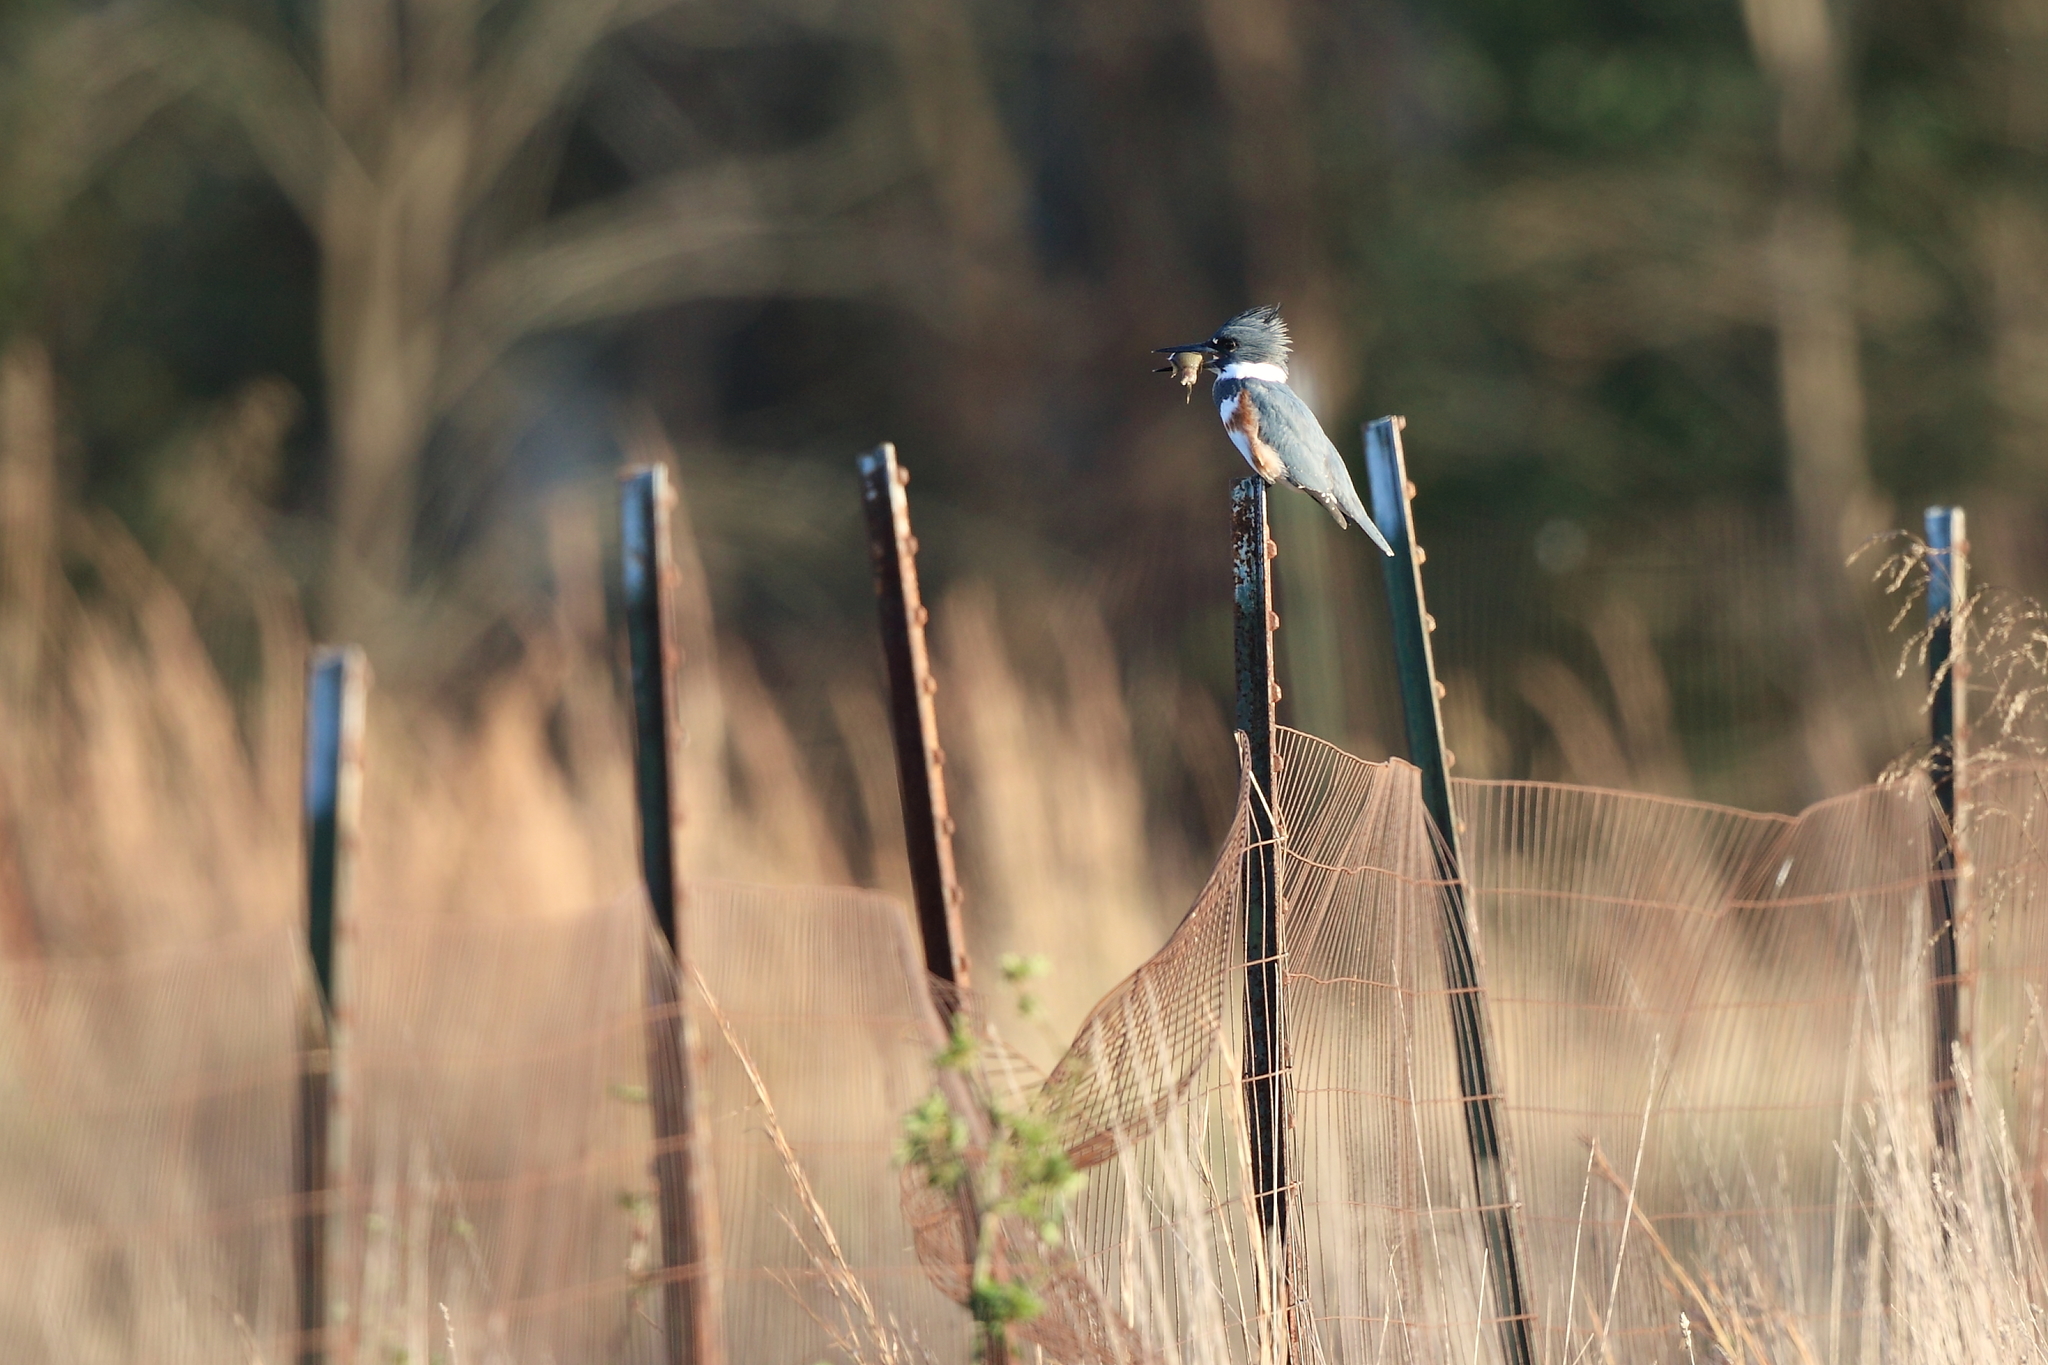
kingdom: Animalia
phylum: Chordata
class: Aves
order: Coraciiformes
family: Alcedinidae
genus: Megaceryle
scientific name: Megaceryle alcyon
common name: Belted kingfisher
